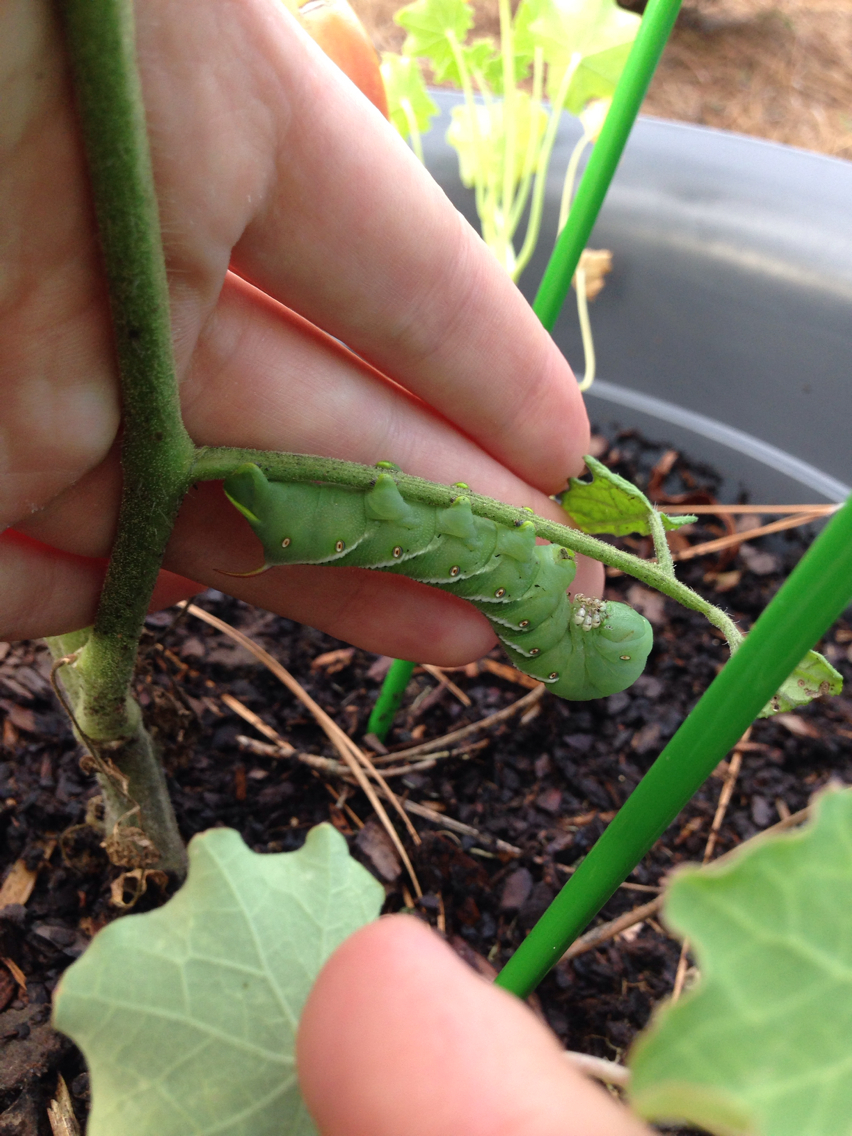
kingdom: Animalia
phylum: Arthropoda
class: Insecta
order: Lepidoptera
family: Sphingidae
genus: Manduca
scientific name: Manduca sexta
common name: Carolina sphinx
